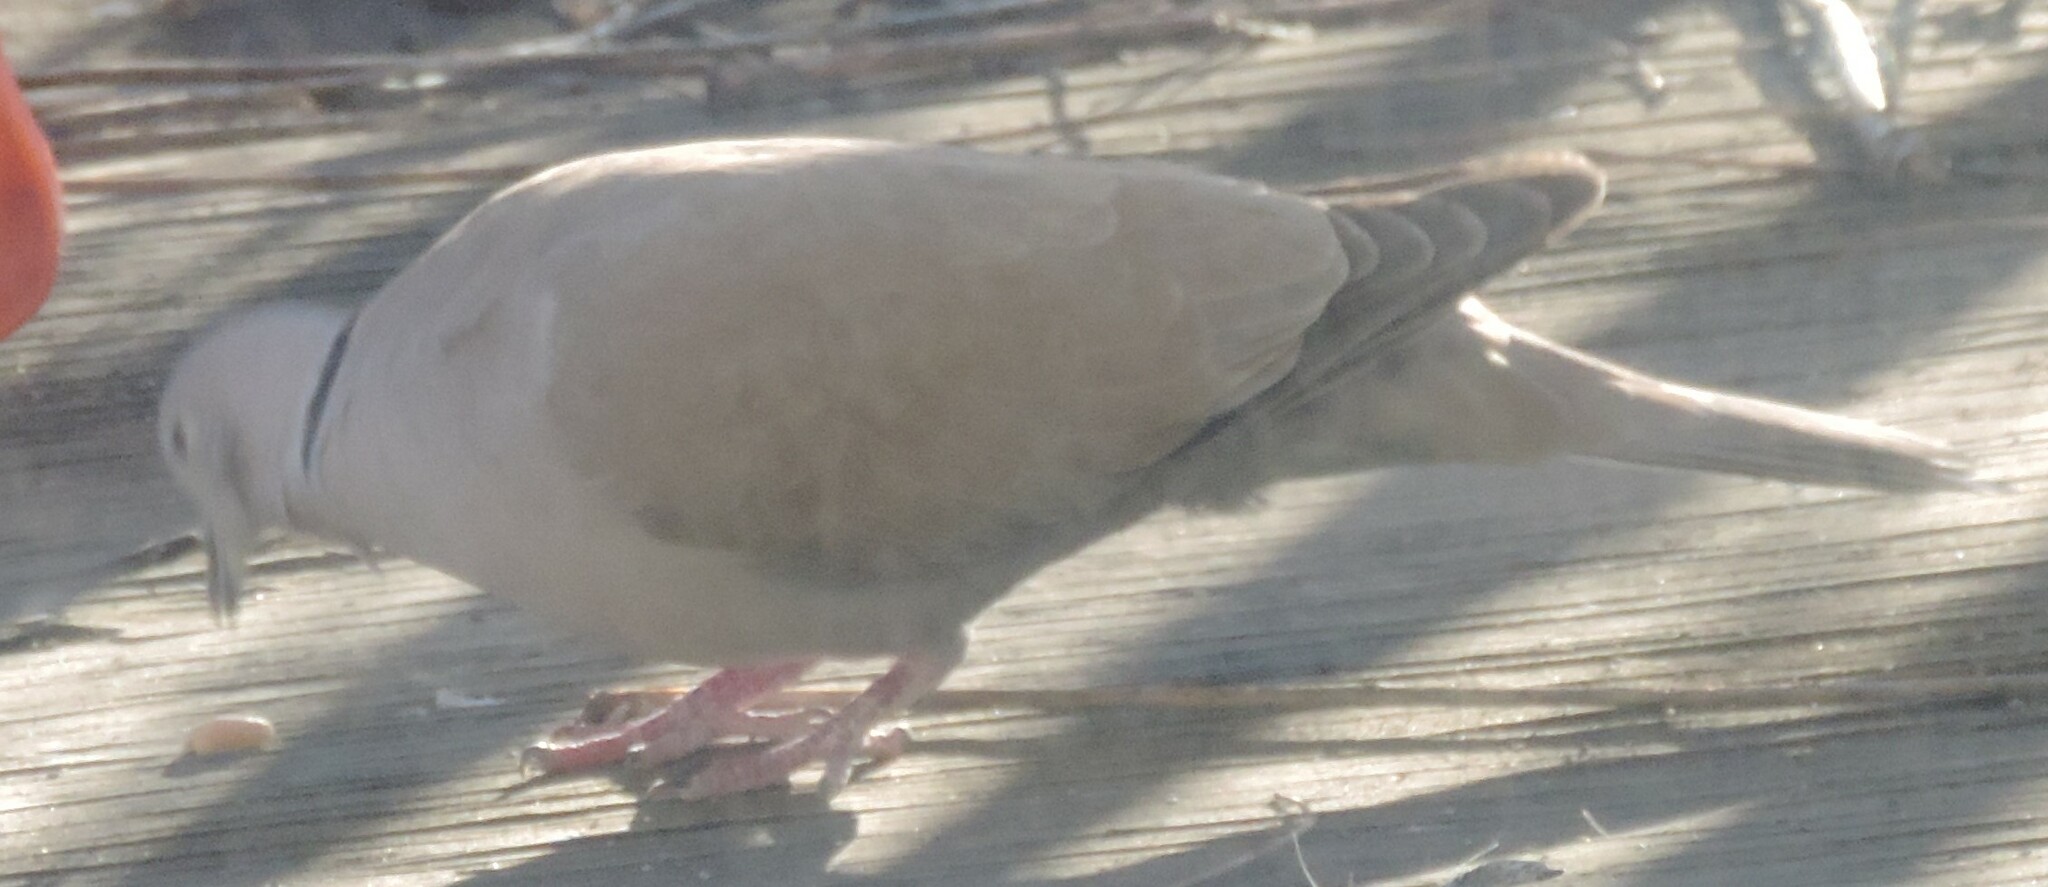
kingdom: Animalia
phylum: Chordata
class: Aves
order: Columbiformes
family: Columbidae
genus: Streptopelia
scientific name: Streptopelia decaocto
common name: Eurasian collared dove
